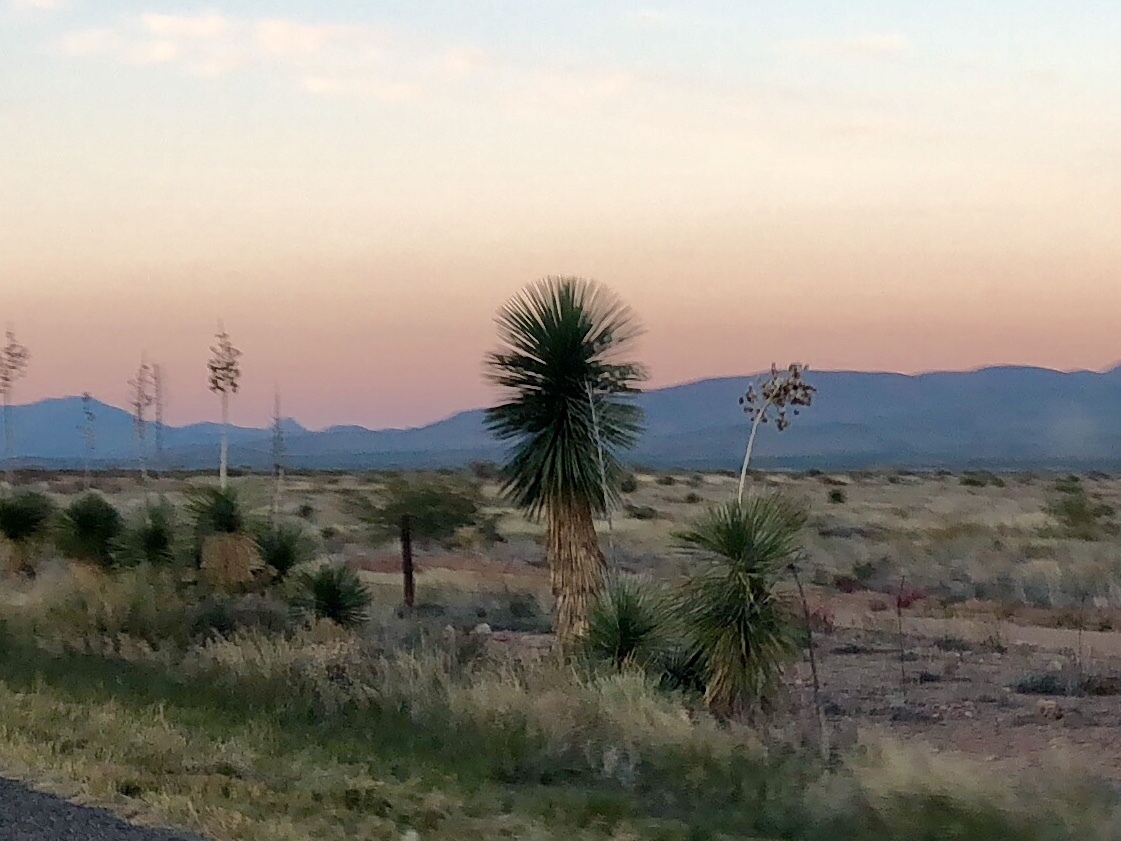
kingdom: Plantae
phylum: Tracheophyta
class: Liliopsida
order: Asparagales
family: Asparagaceae
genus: Yucca
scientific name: Yucca elata
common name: Palmella
